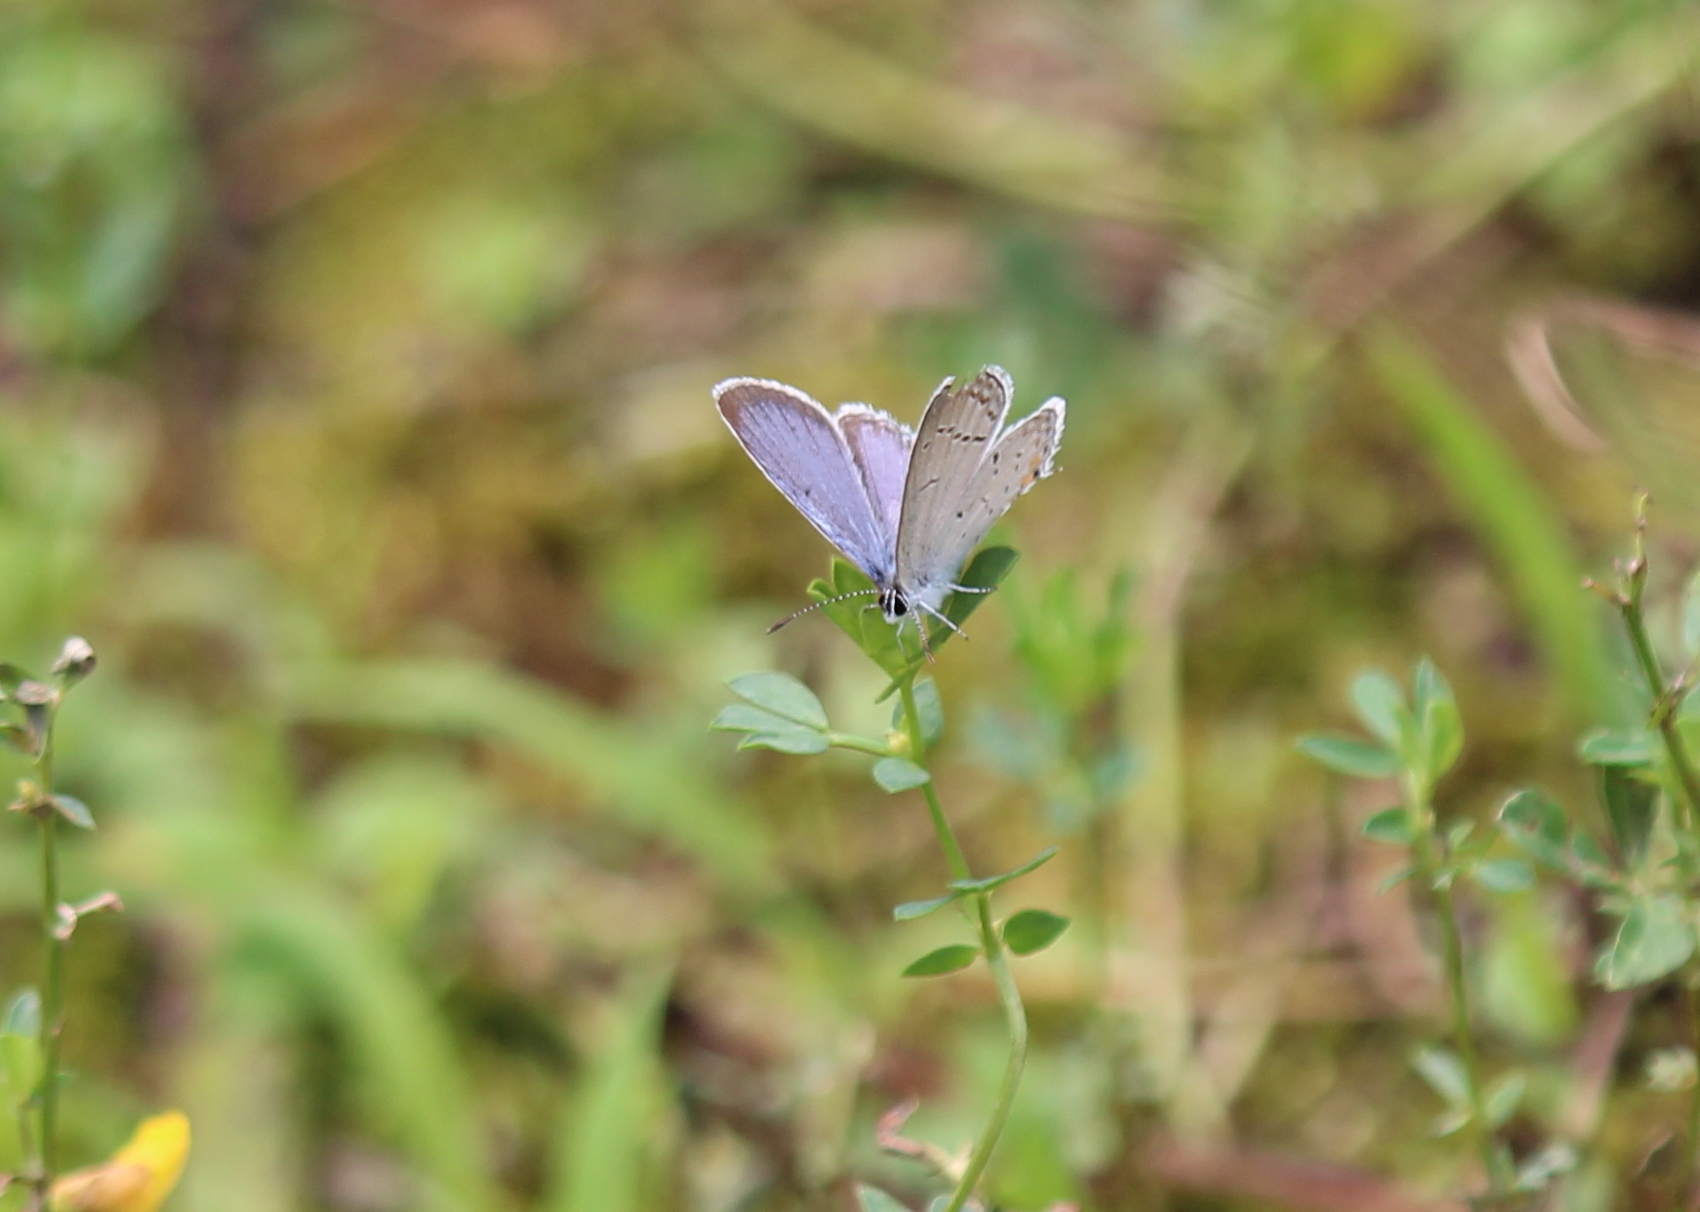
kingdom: Animalia
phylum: Arthropoda
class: Insecta
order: Lepidoptera
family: Lycaenidae
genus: Elkalyce
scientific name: Elkalyce comyntas
